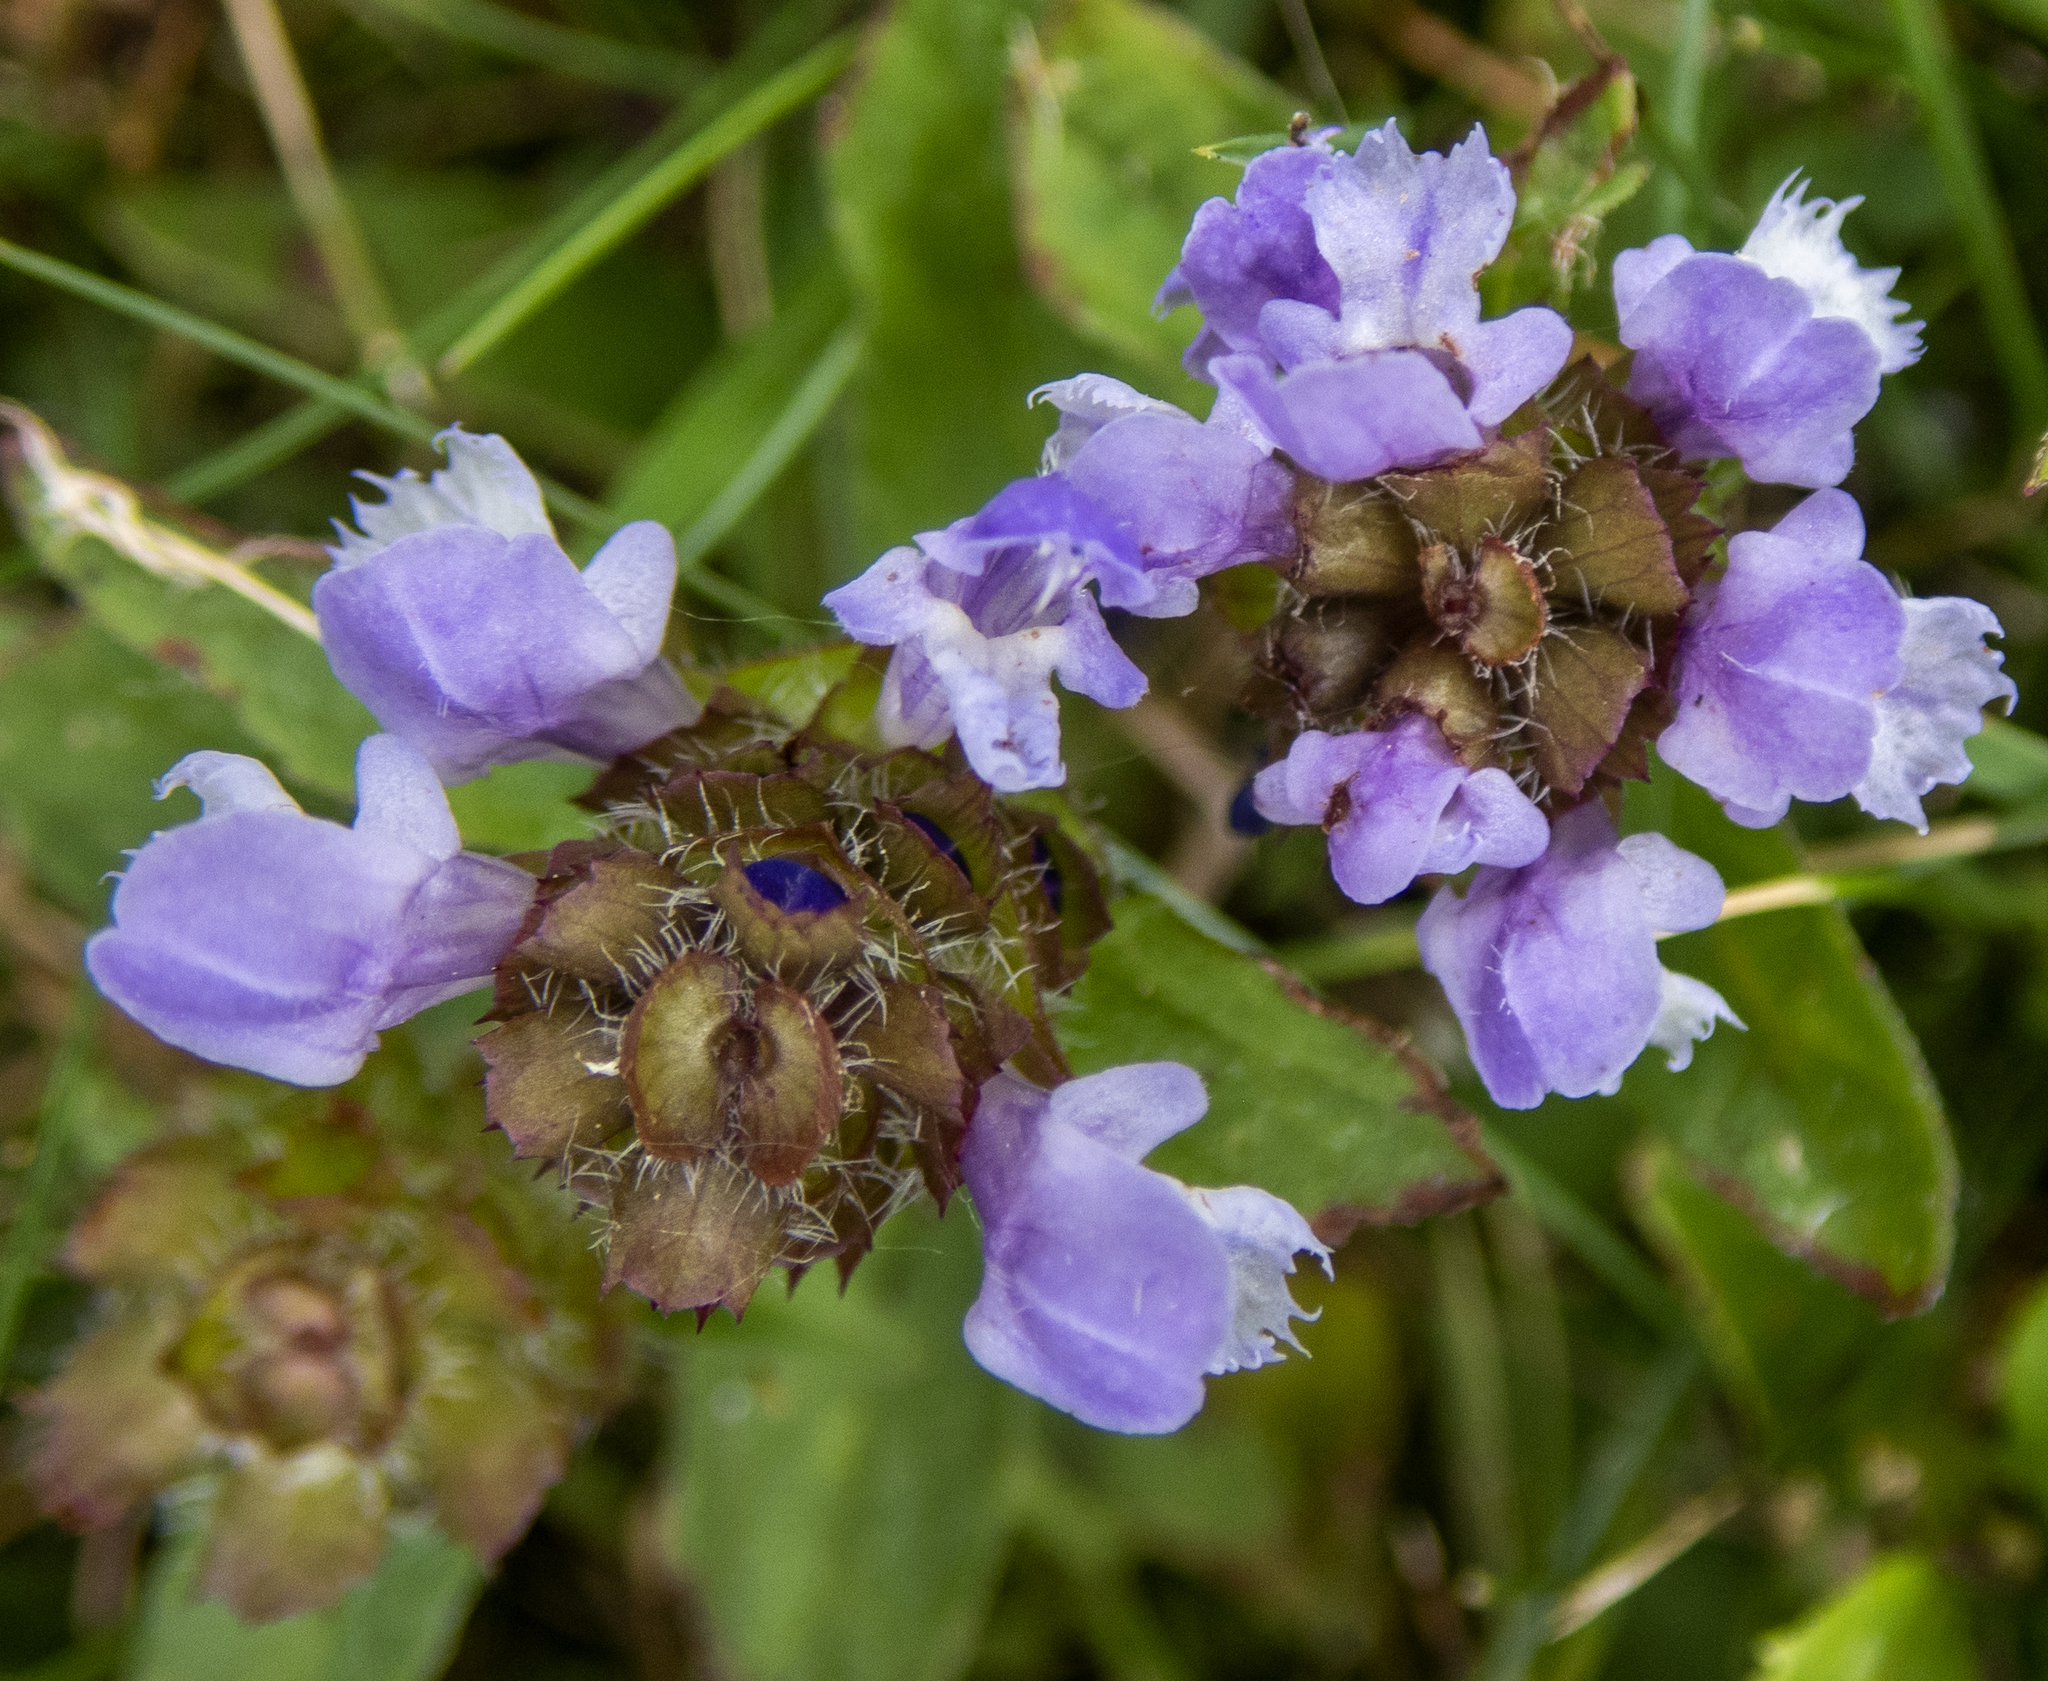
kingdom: Plantae
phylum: Tracheophyta
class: Magnoliopsida
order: Lamiales
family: Lamiaceae
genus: Prunella
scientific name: Prunella vulgaris
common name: Heal-all
